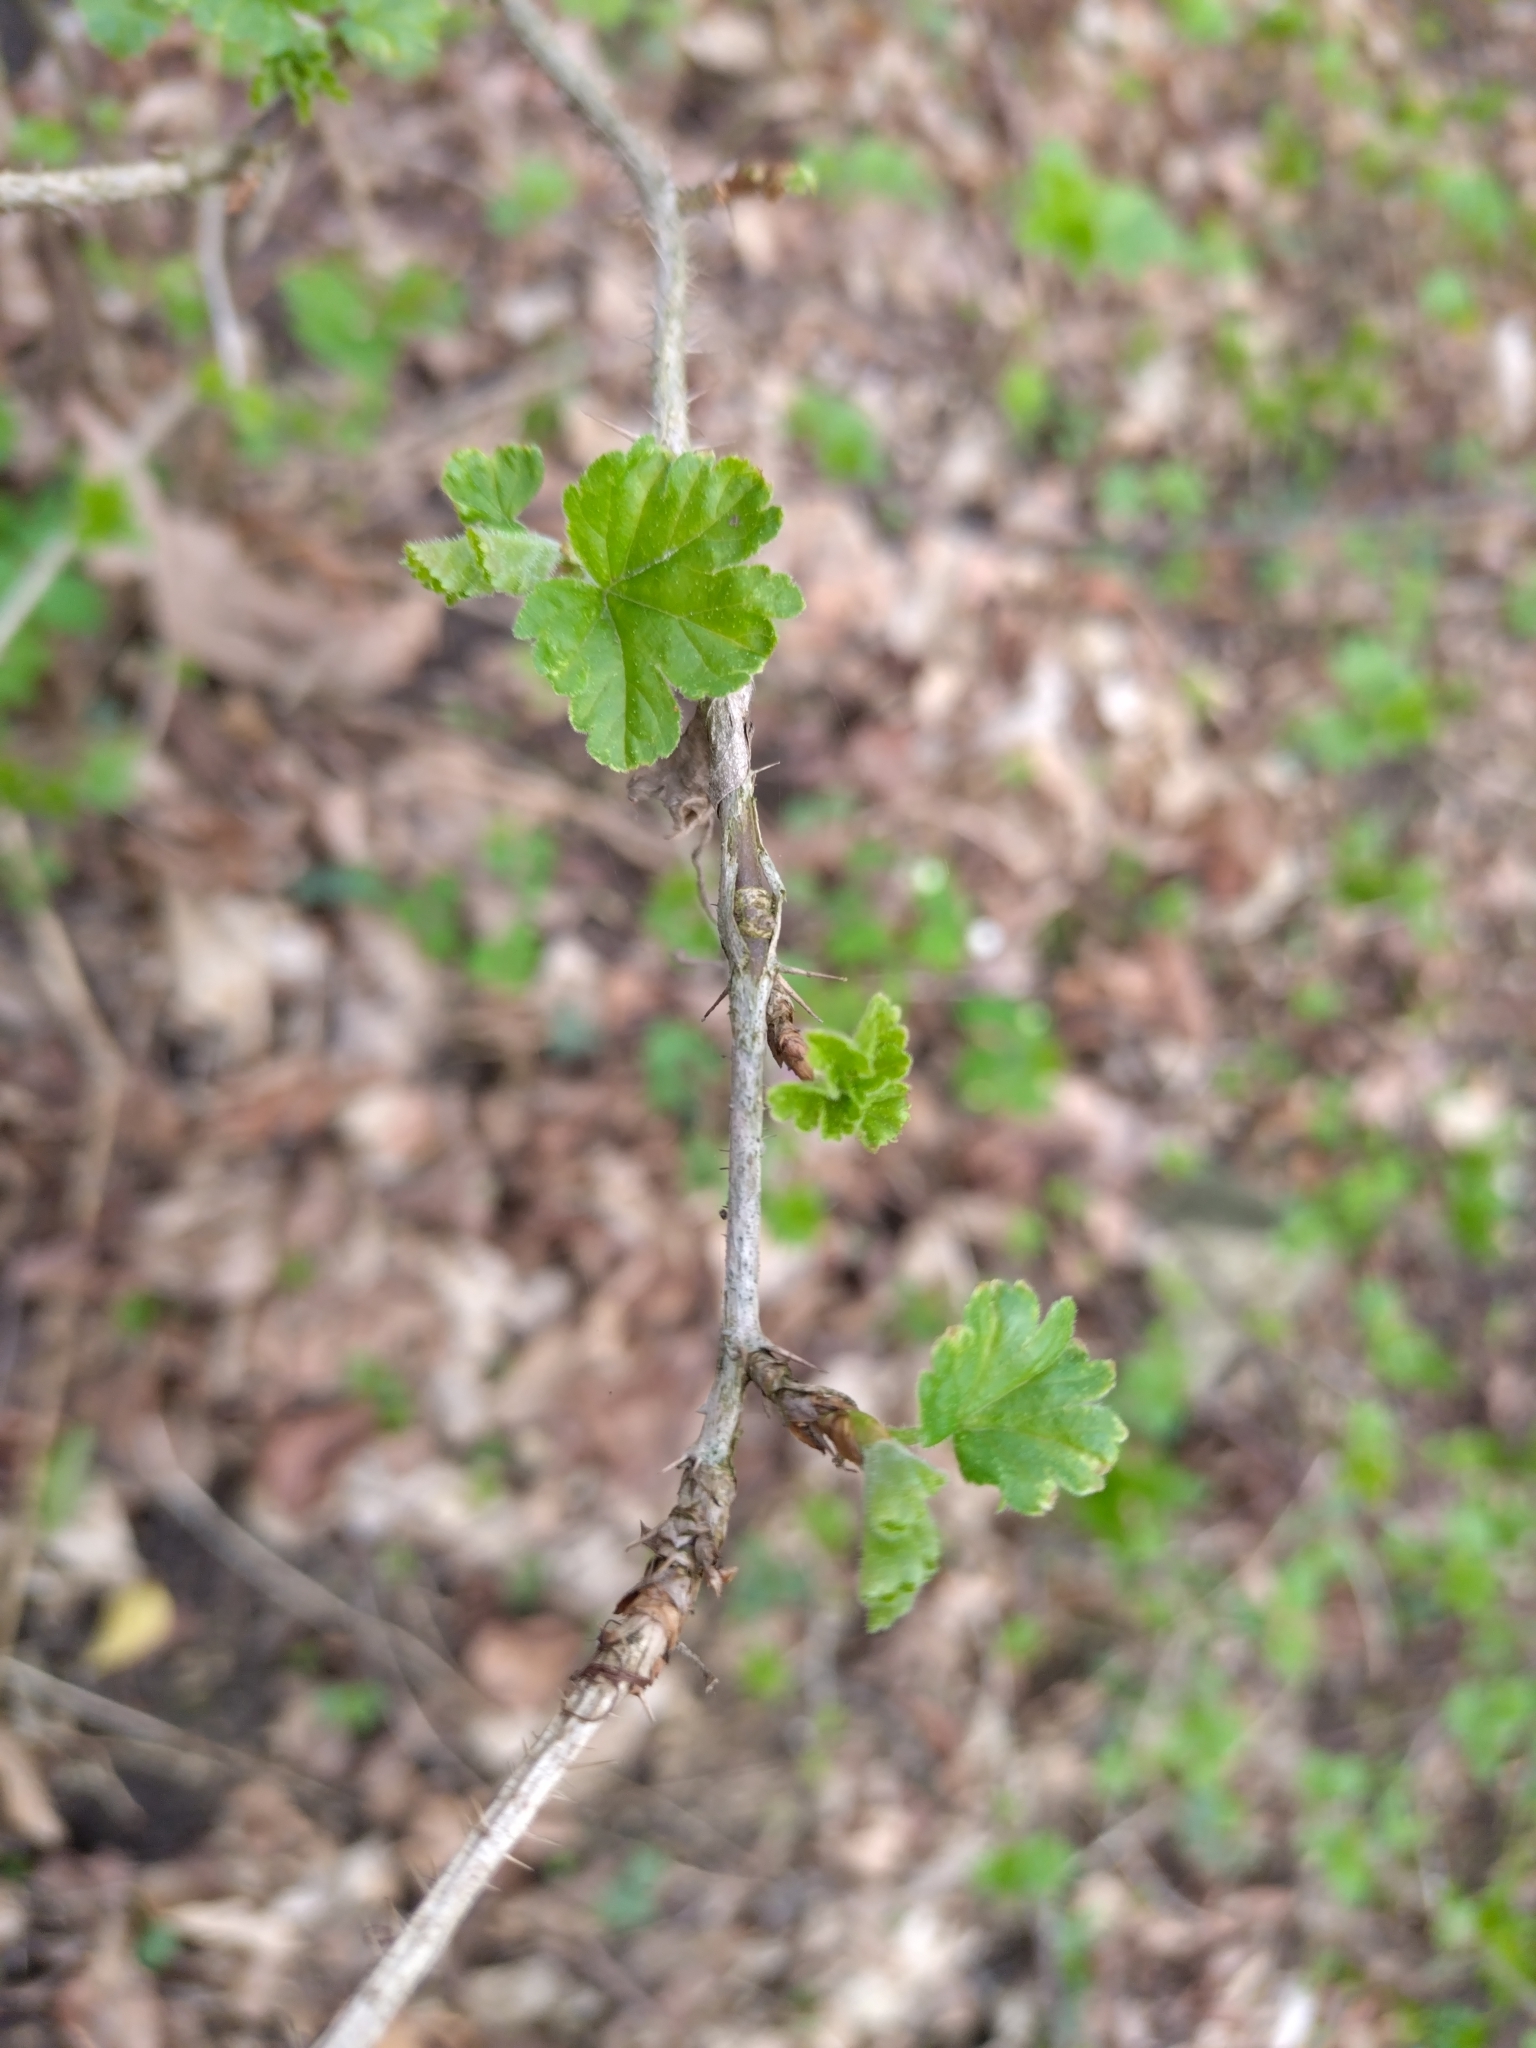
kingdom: Plantae
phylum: Tracheophyta
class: Magnoliopsida
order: Saxifragales
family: Grossulariaceae
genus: Ribes
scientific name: Ribes uva-crispa
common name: Gooseberry
